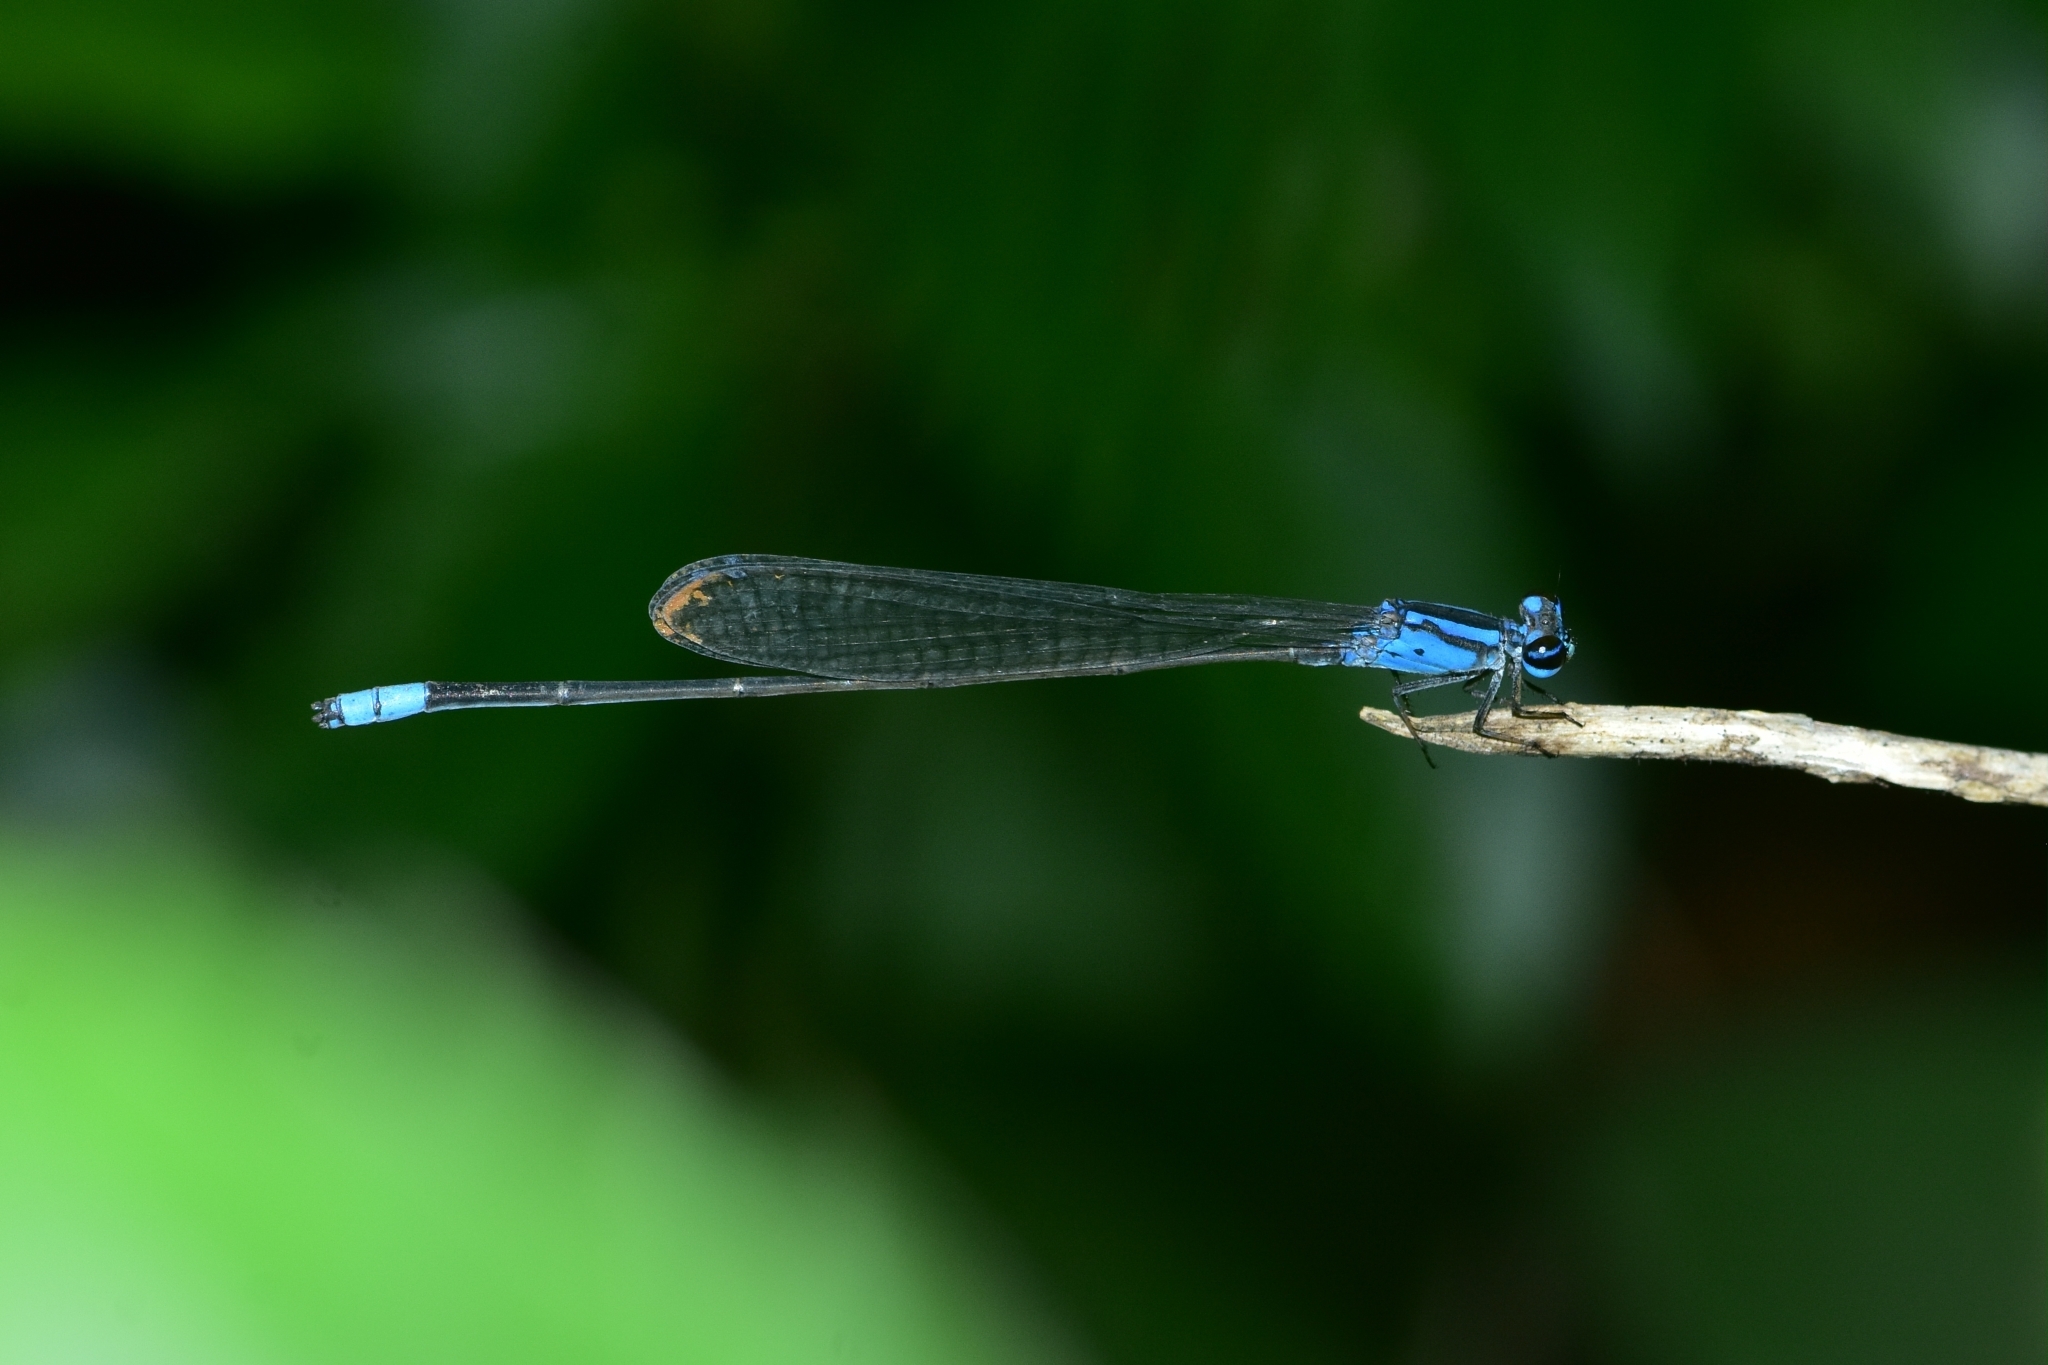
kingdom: Animalia
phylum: Arthropoda
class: Insecta
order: Odonata
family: Coenagrionidae
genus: Archibasis
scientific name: Archibasis oscillans
